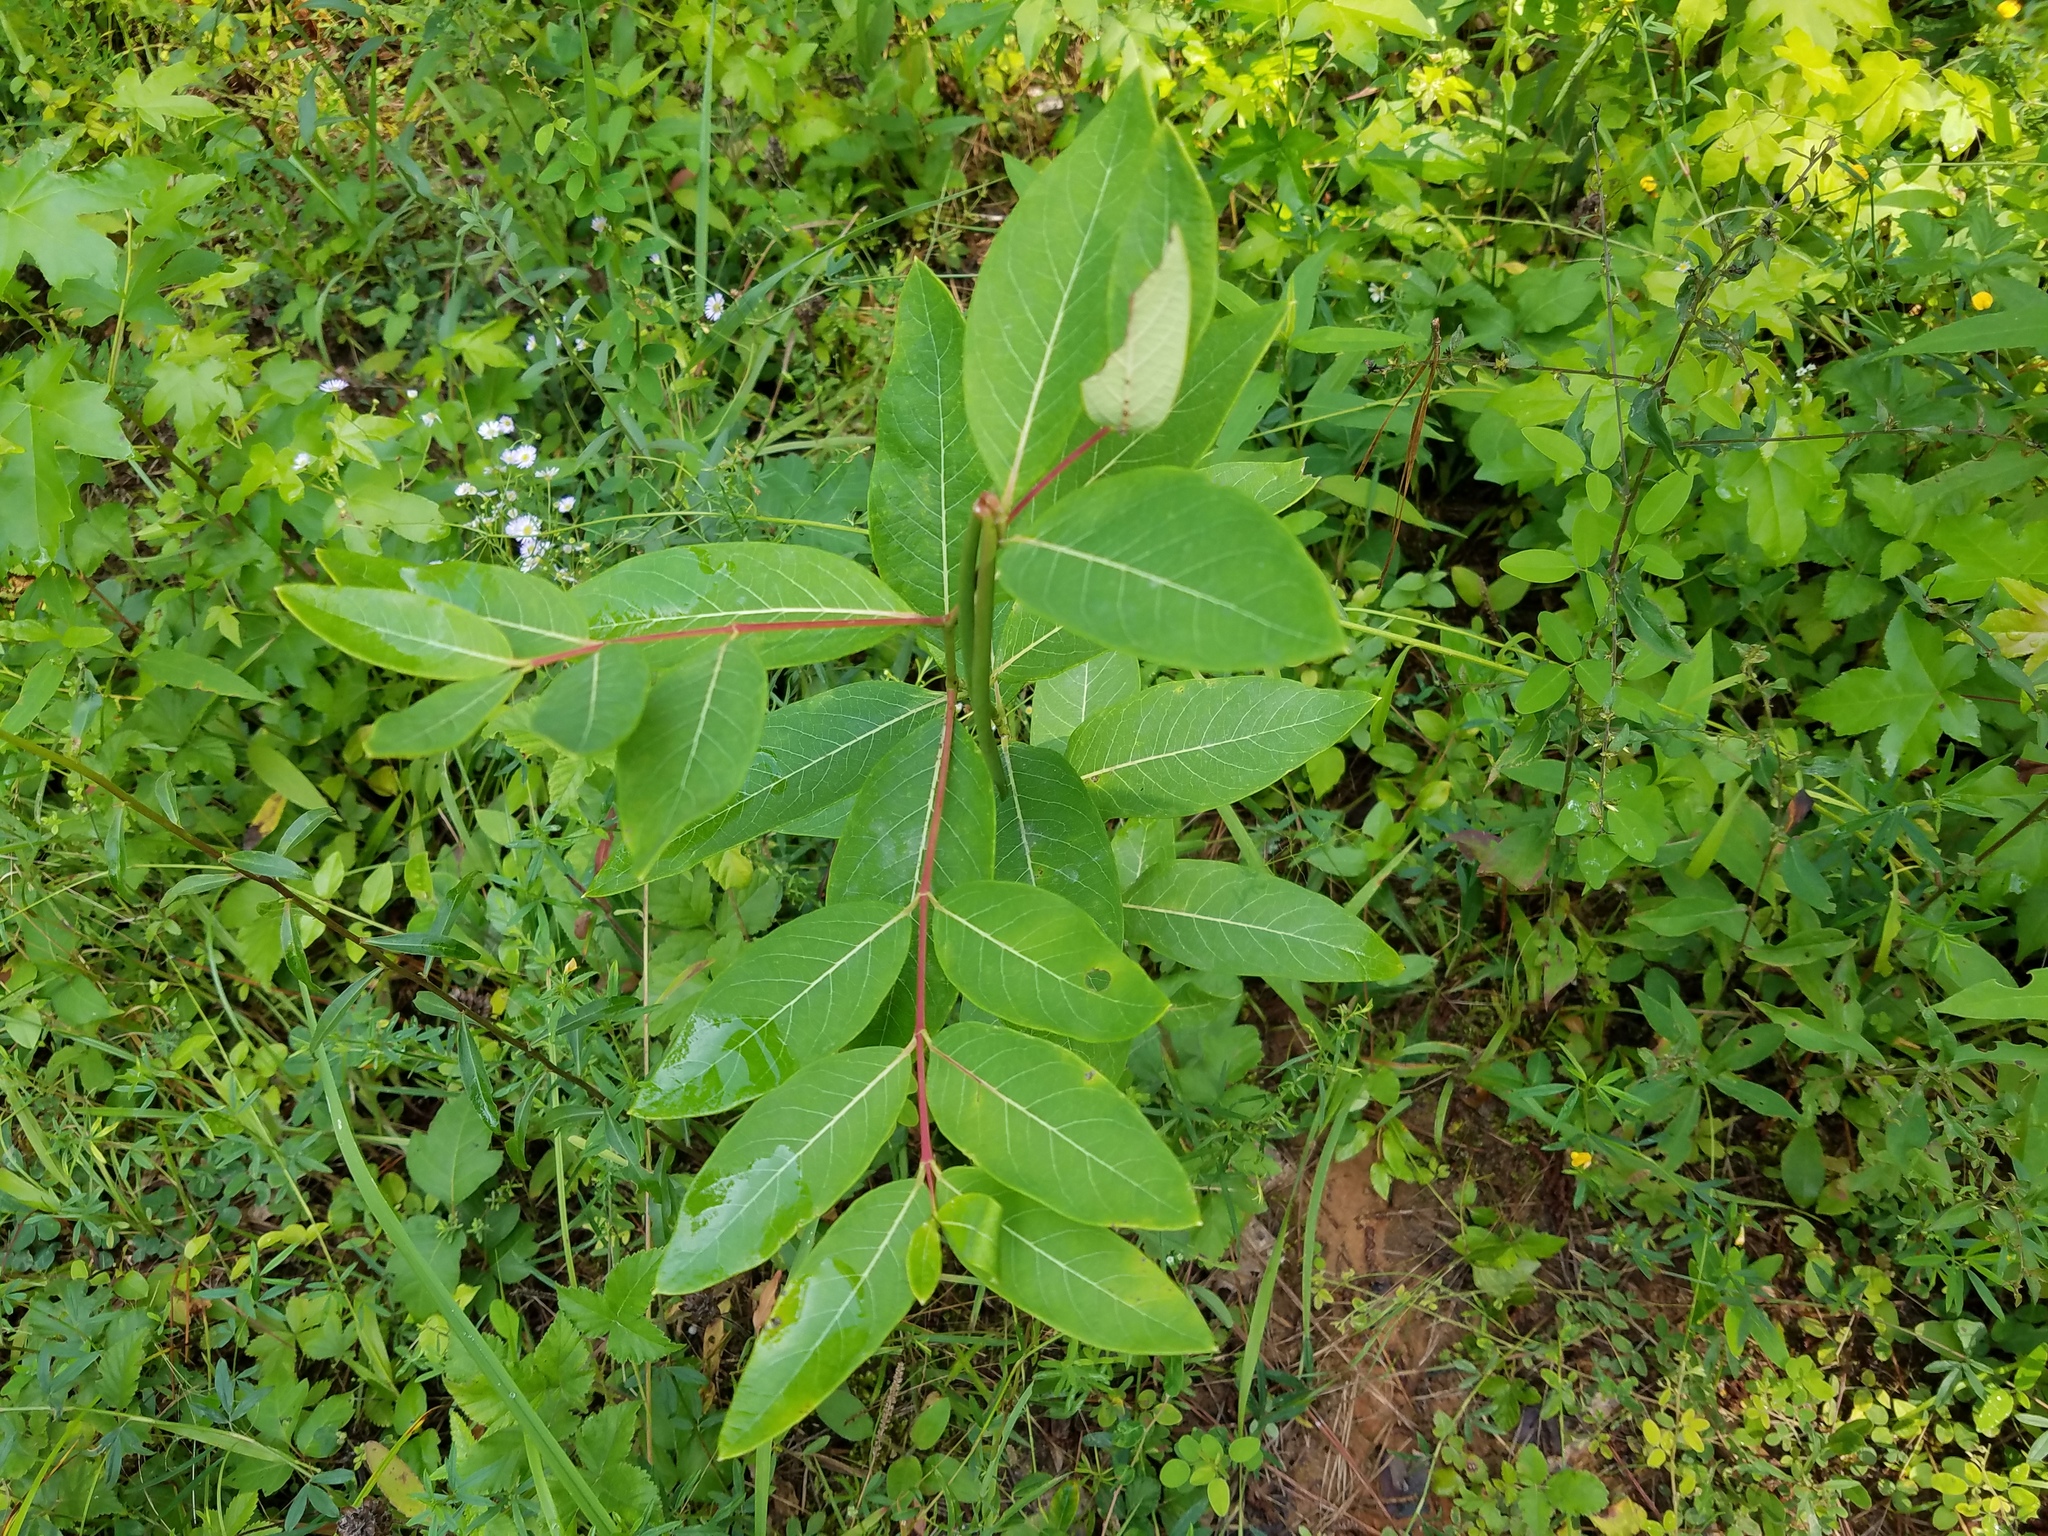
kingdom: Plantae
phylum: Tracheophyta
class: Magnoliopsida
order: Gentianales
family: Apocynaceae
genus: Apocynum
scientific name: Apocynum cannabinum
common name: Hemp dogbane
